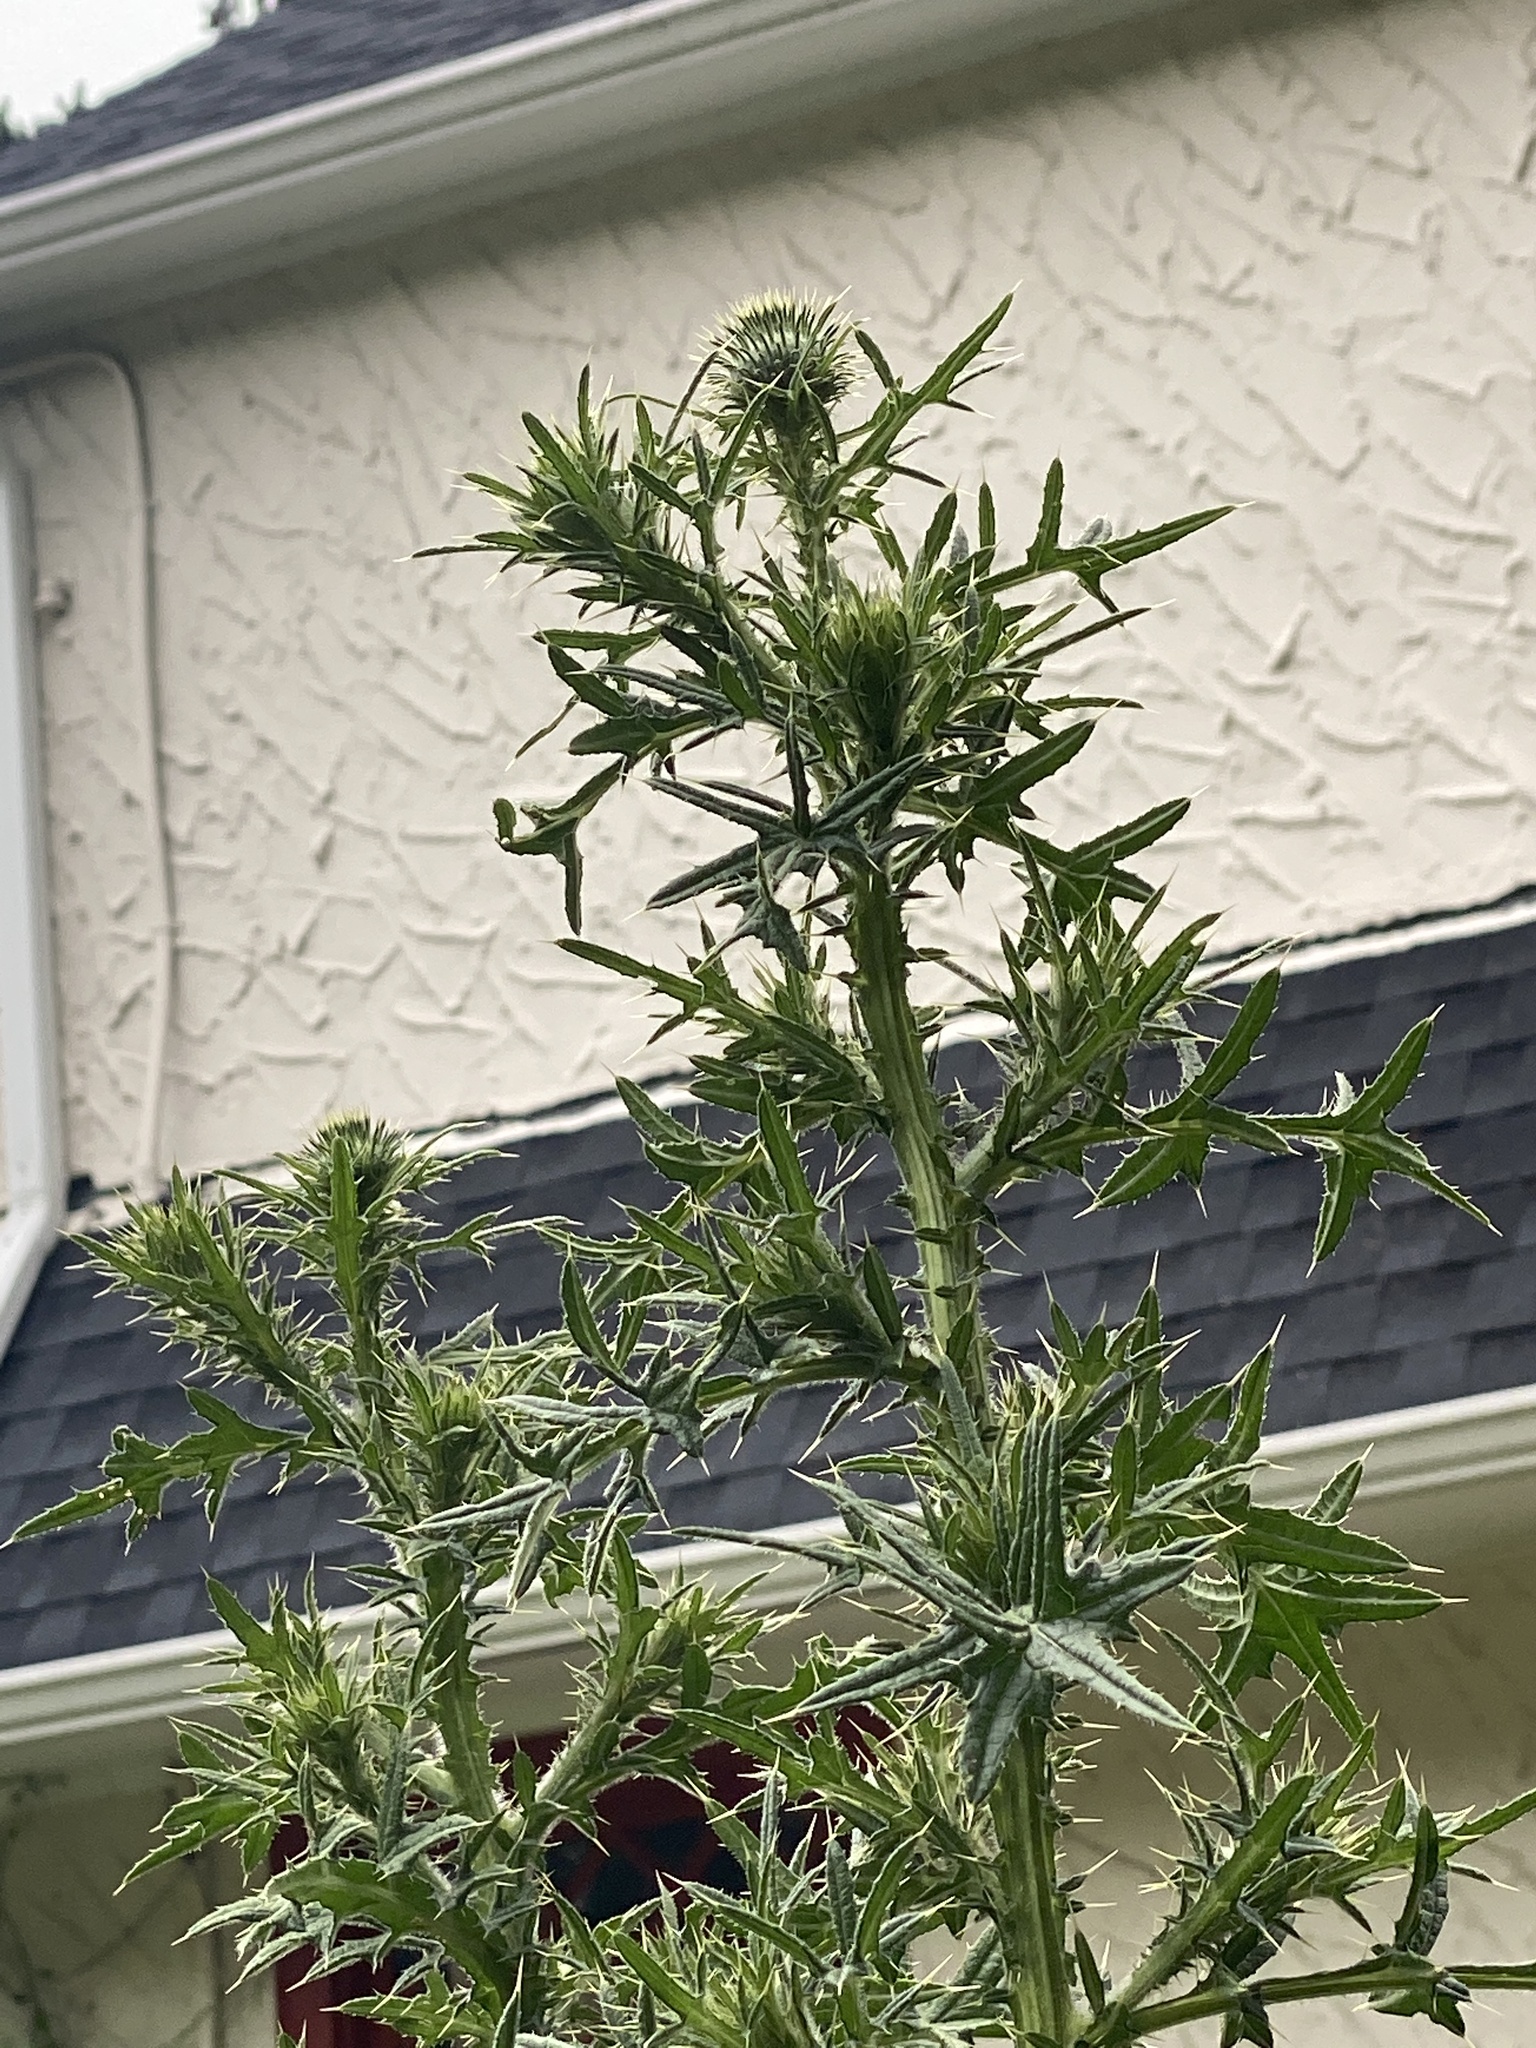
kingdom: Plantae
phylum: Tracheophyta
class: Magnoliopsida
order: Asterales
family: Asteraceae
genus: Cirsium
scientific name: Cirsium vulgare
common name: Bull thistle
